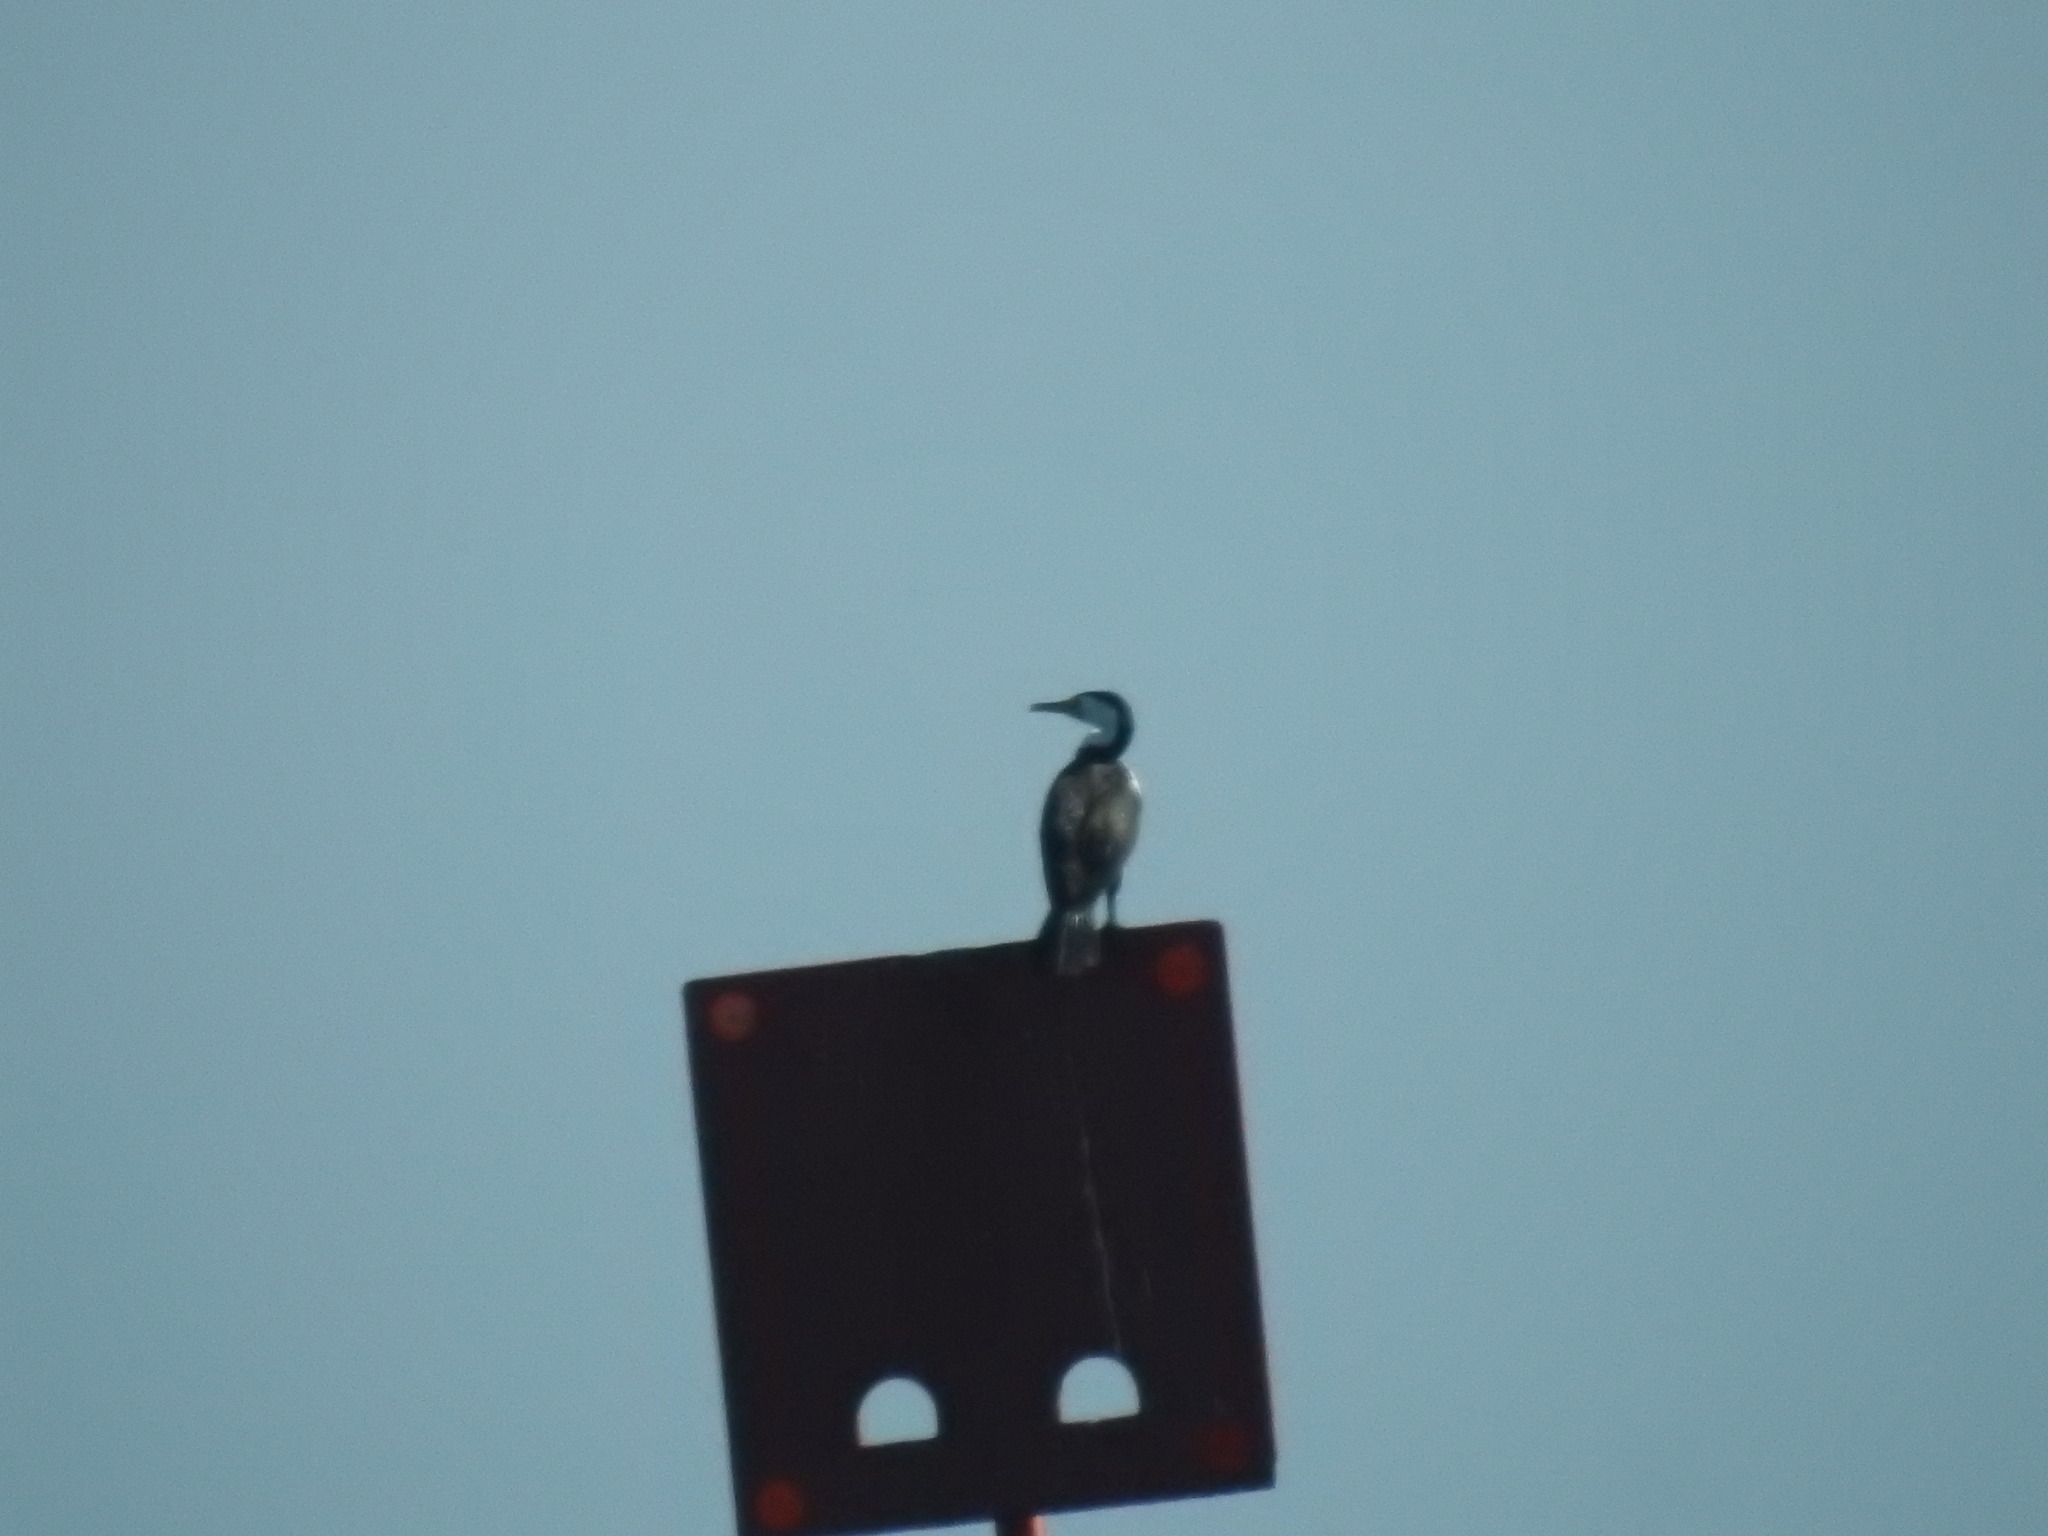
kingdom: Animalia
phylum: Chordata
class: Aves
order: Suliformes
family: Phalacrocoracidae
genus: Phalacrocorax
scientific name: Phalacrocorax varius
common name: Pied cormorant
